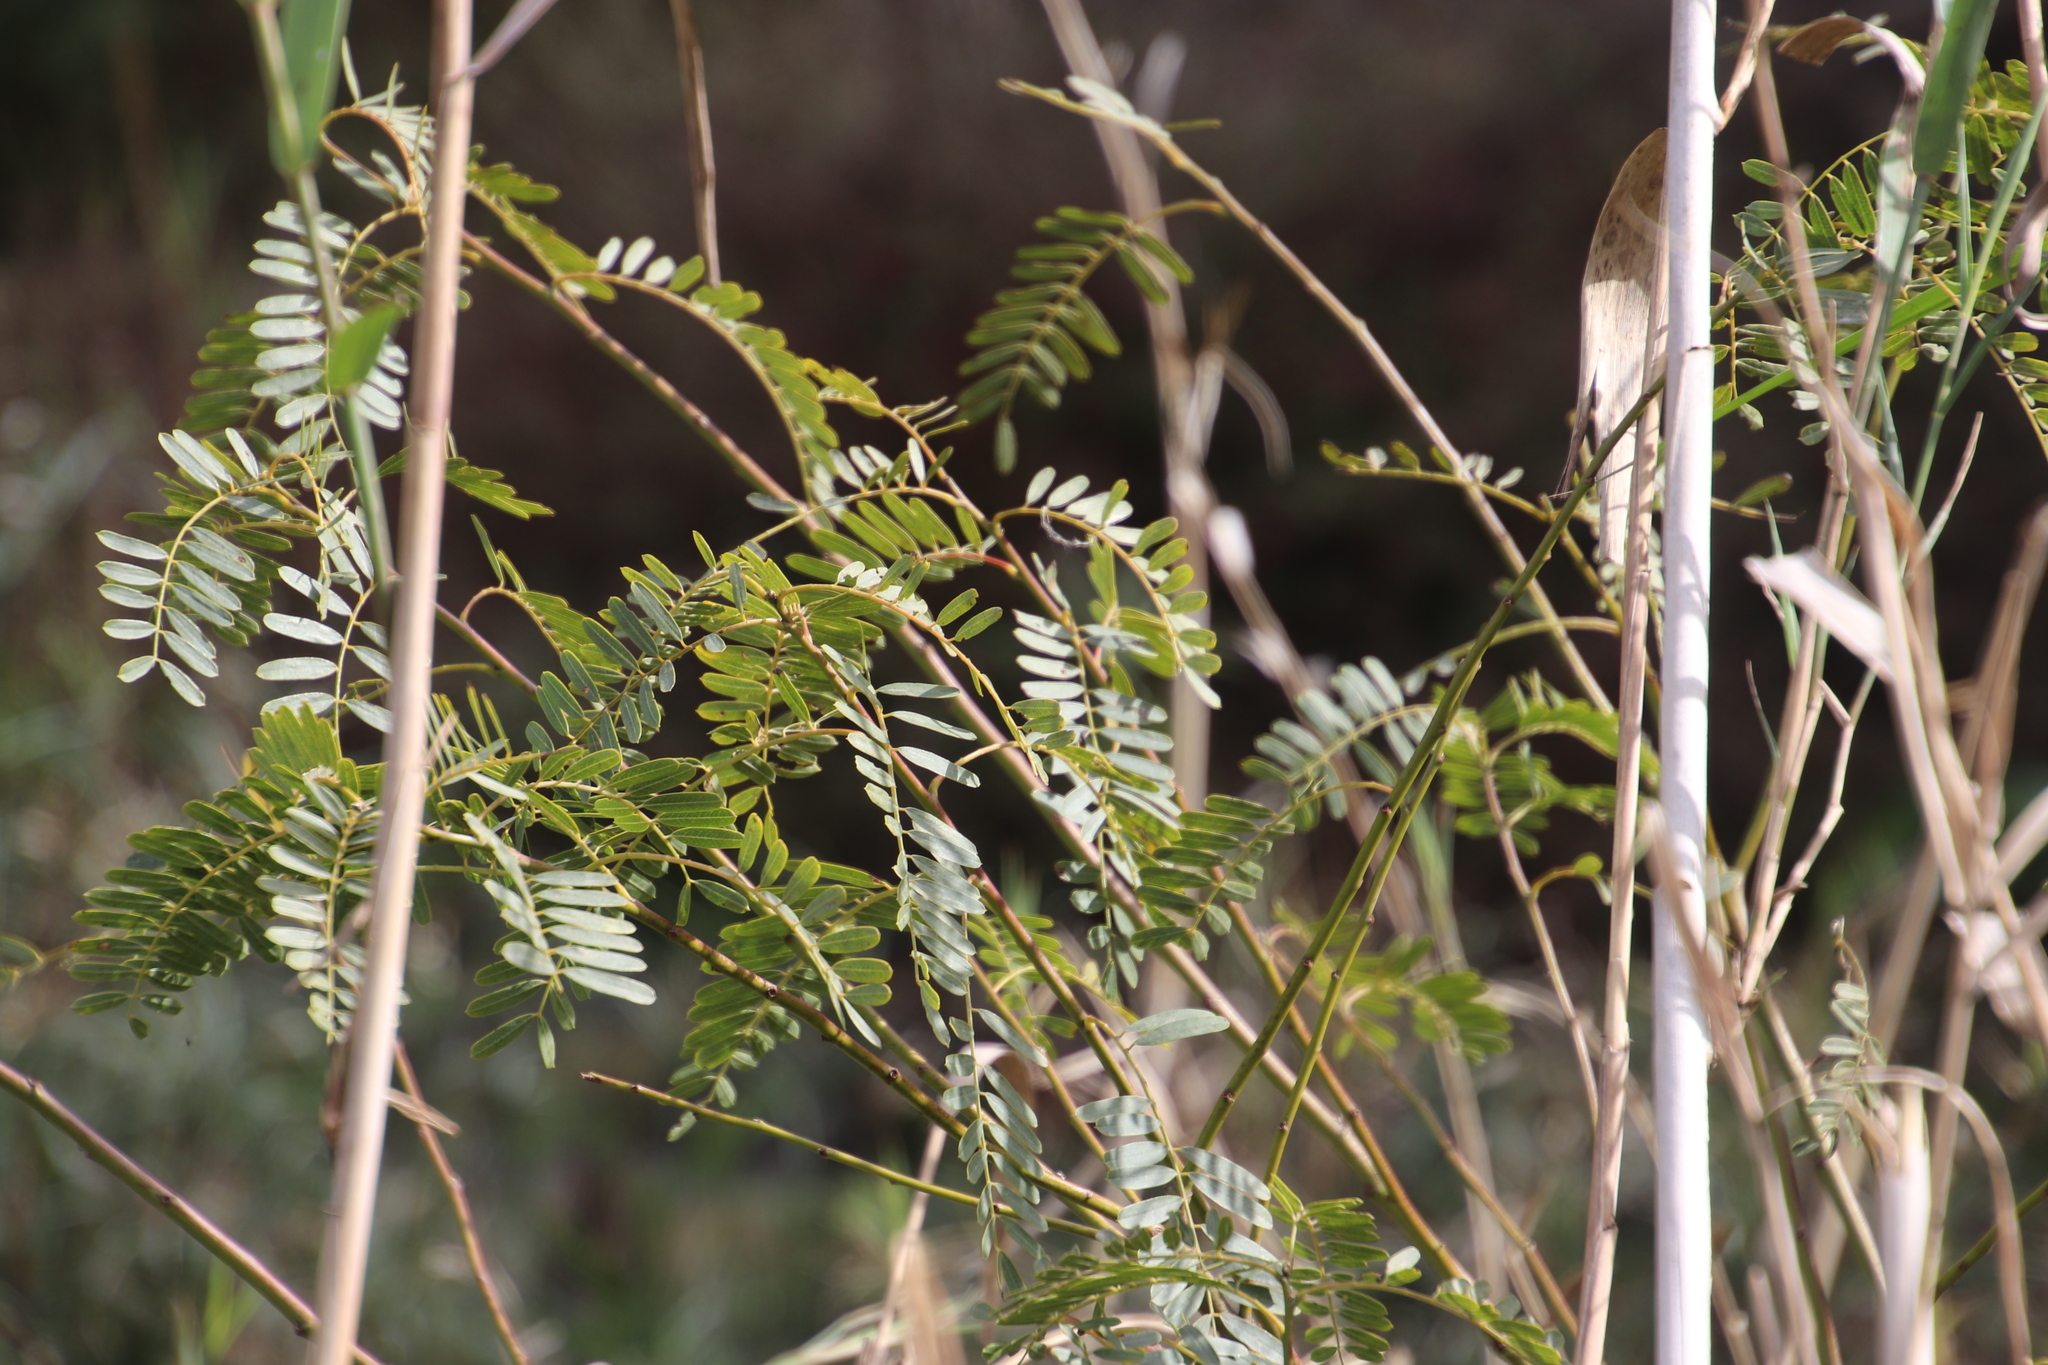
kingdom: Plantae
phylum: Tracheophyta
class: Magnoliopsida
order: Fabales
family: Fabaceae
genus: Sesbania
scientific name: Sesbania punicea
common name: Rattlebox
